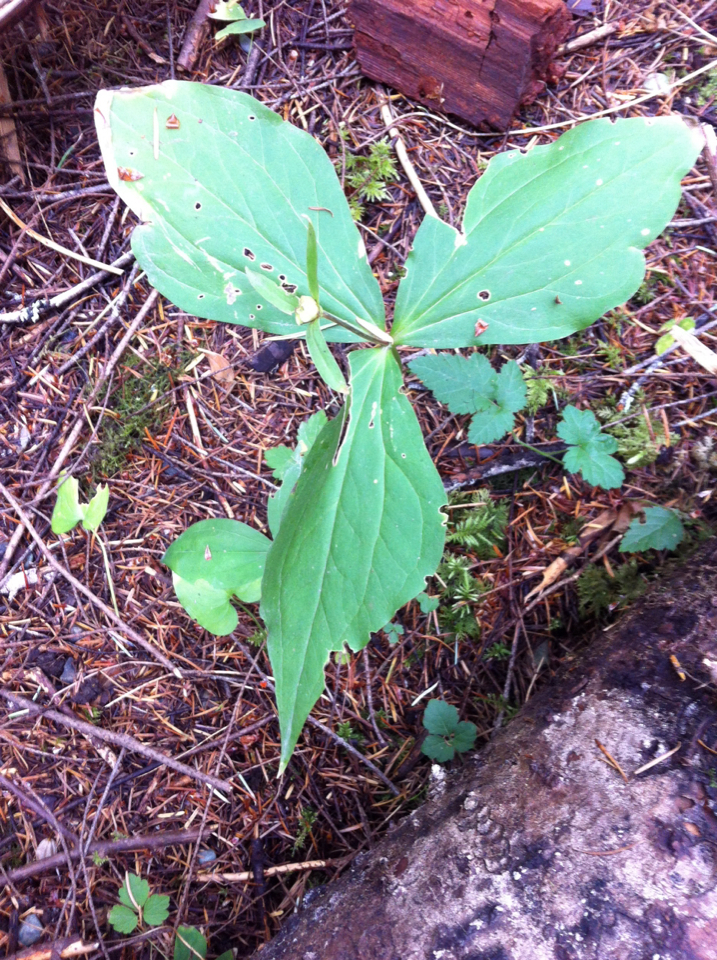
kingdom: Plantae
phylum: Tracheophyta
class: Liliopsida
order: Liliales
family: Melanthiaceae
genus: Trillium
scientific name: Trillium ovatum
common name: Pacific trillium
